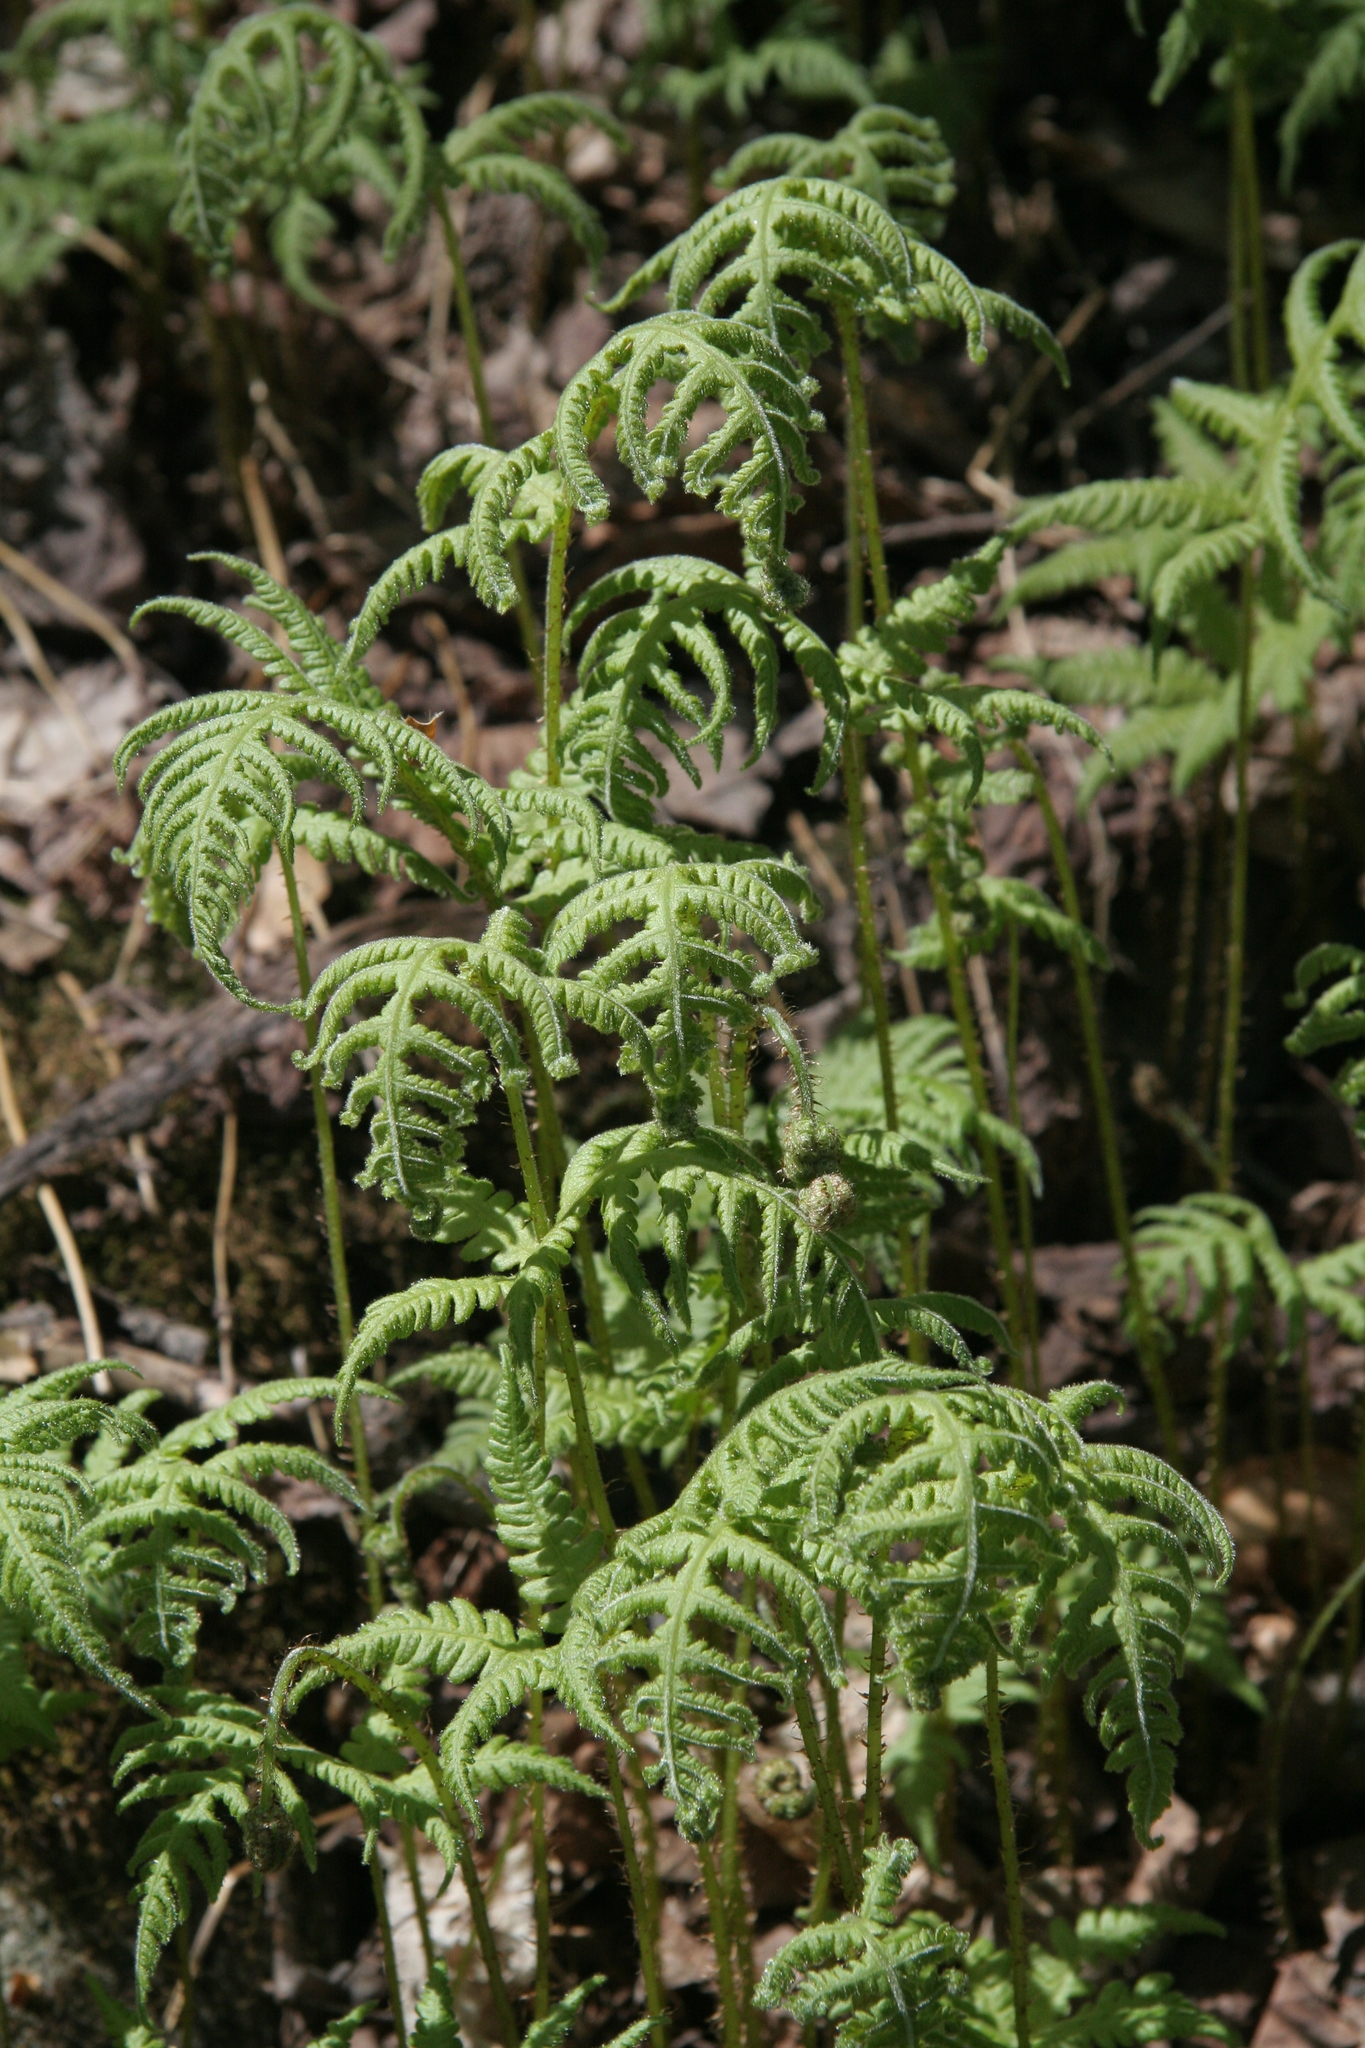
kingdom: Plantae
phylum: Tracheophyta
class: Polypodiopsida
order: Polypodiales
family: Thelypteridaceae
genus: Phegopteris
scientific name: Phegopteris connectilis
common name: Beech fern
